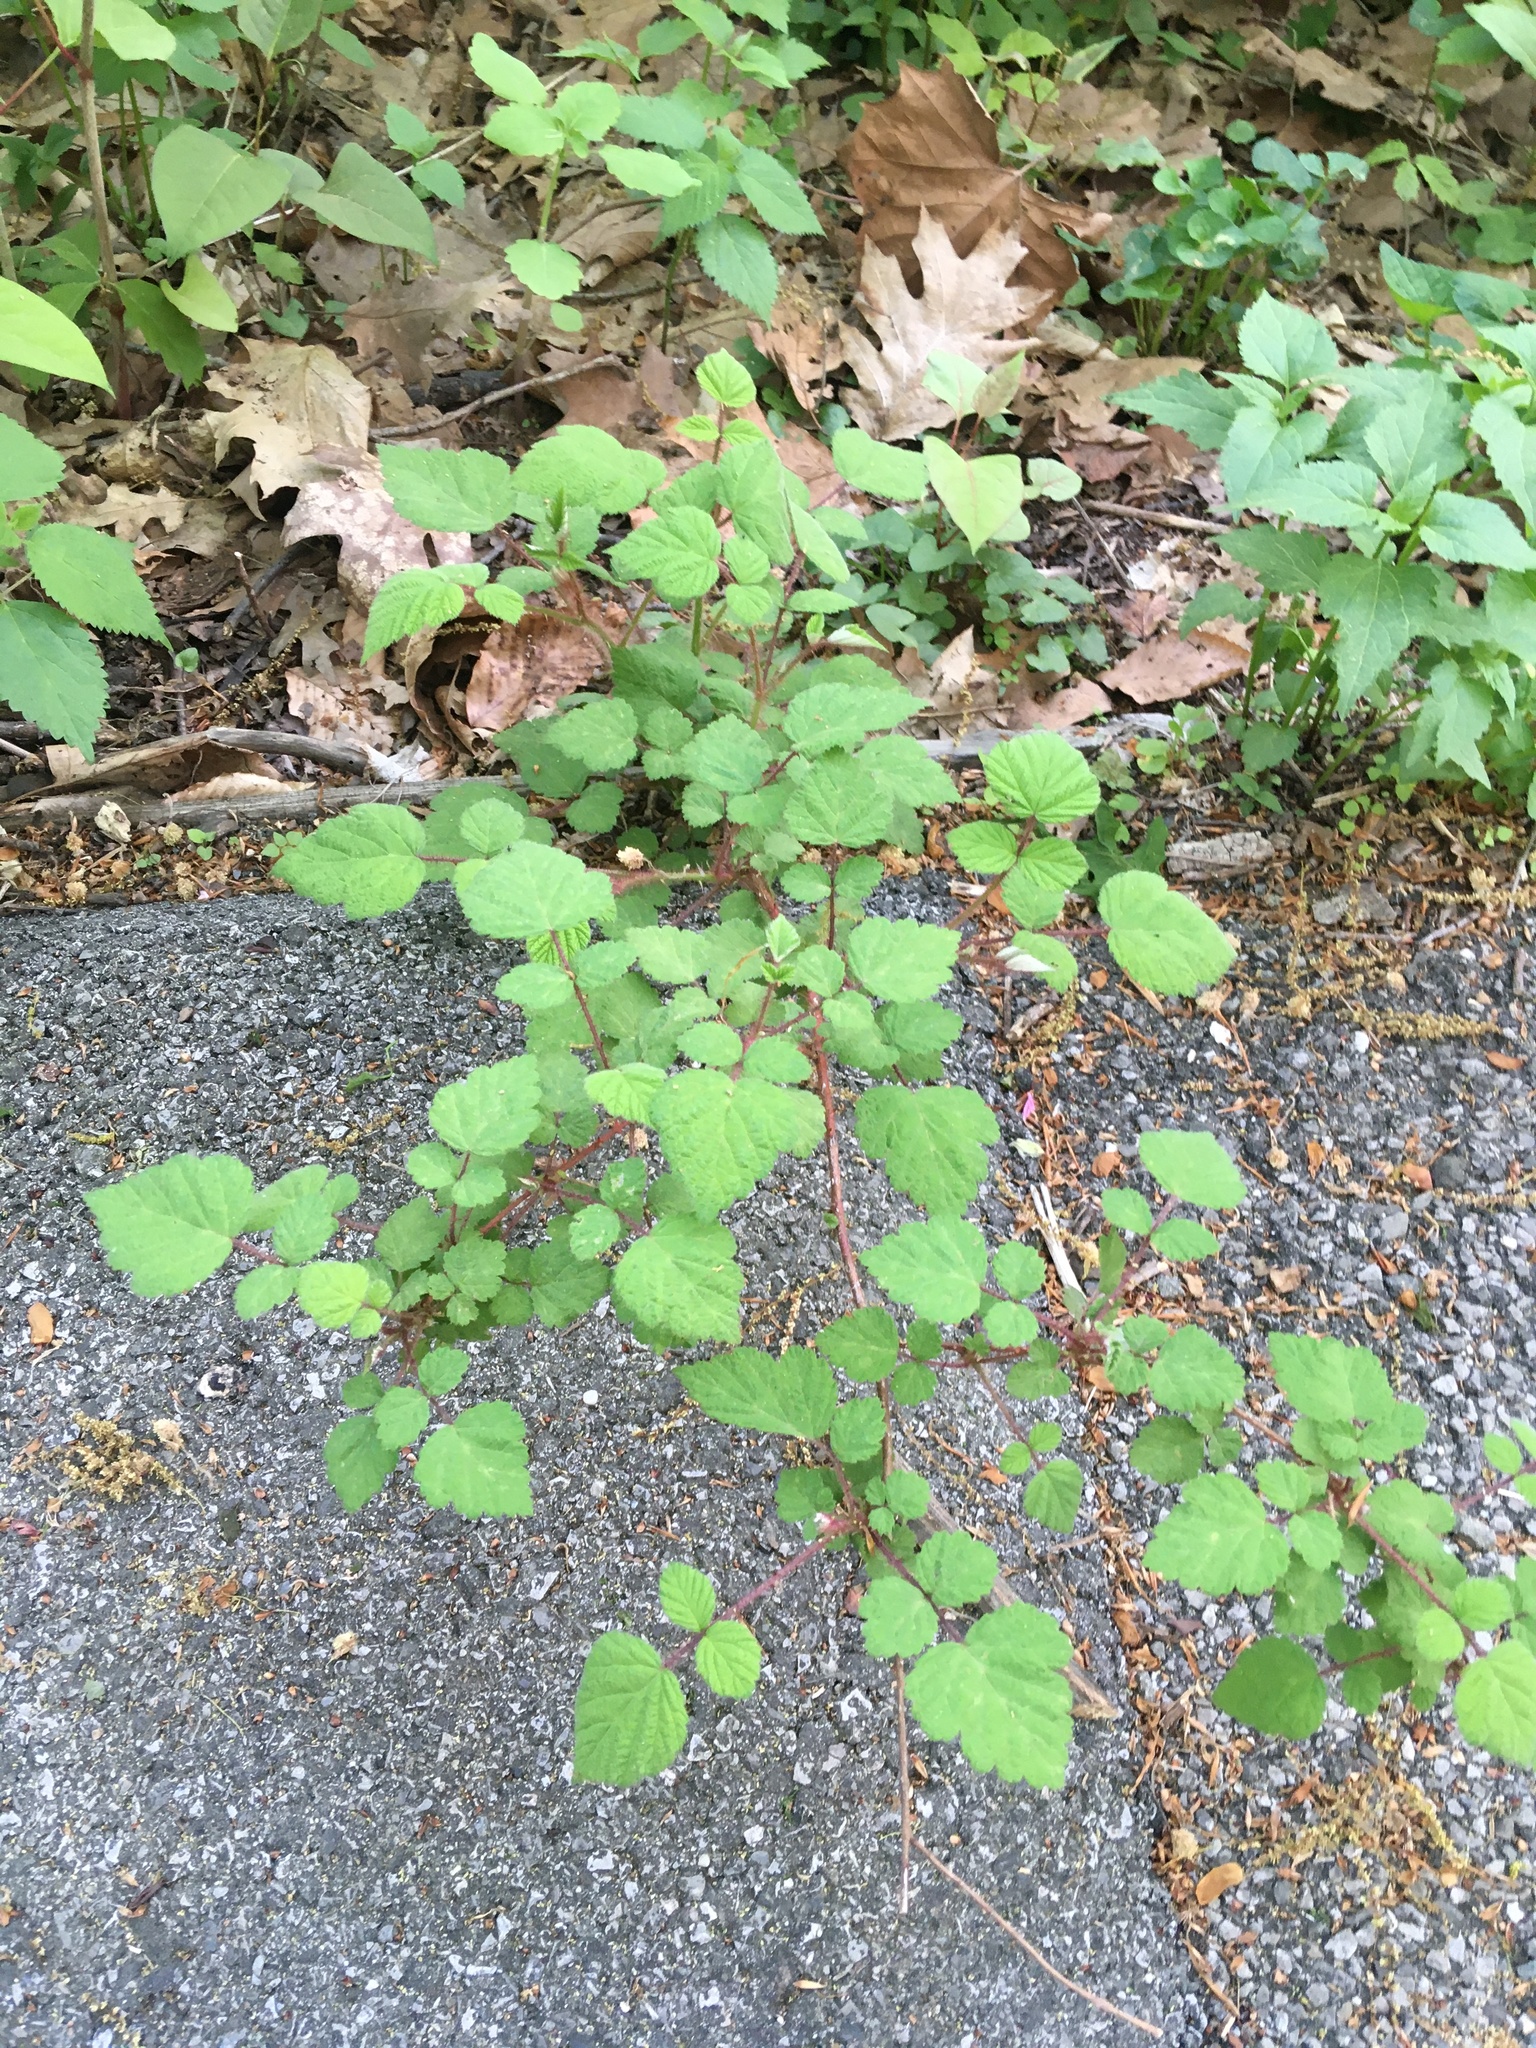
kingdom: Plantae
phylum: Tracheophyta
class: Magnoliopsida
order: Rosales
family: Rosaceae
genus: Rubus
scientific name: Rubus phoenicolasius
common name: Japanese wineberry
